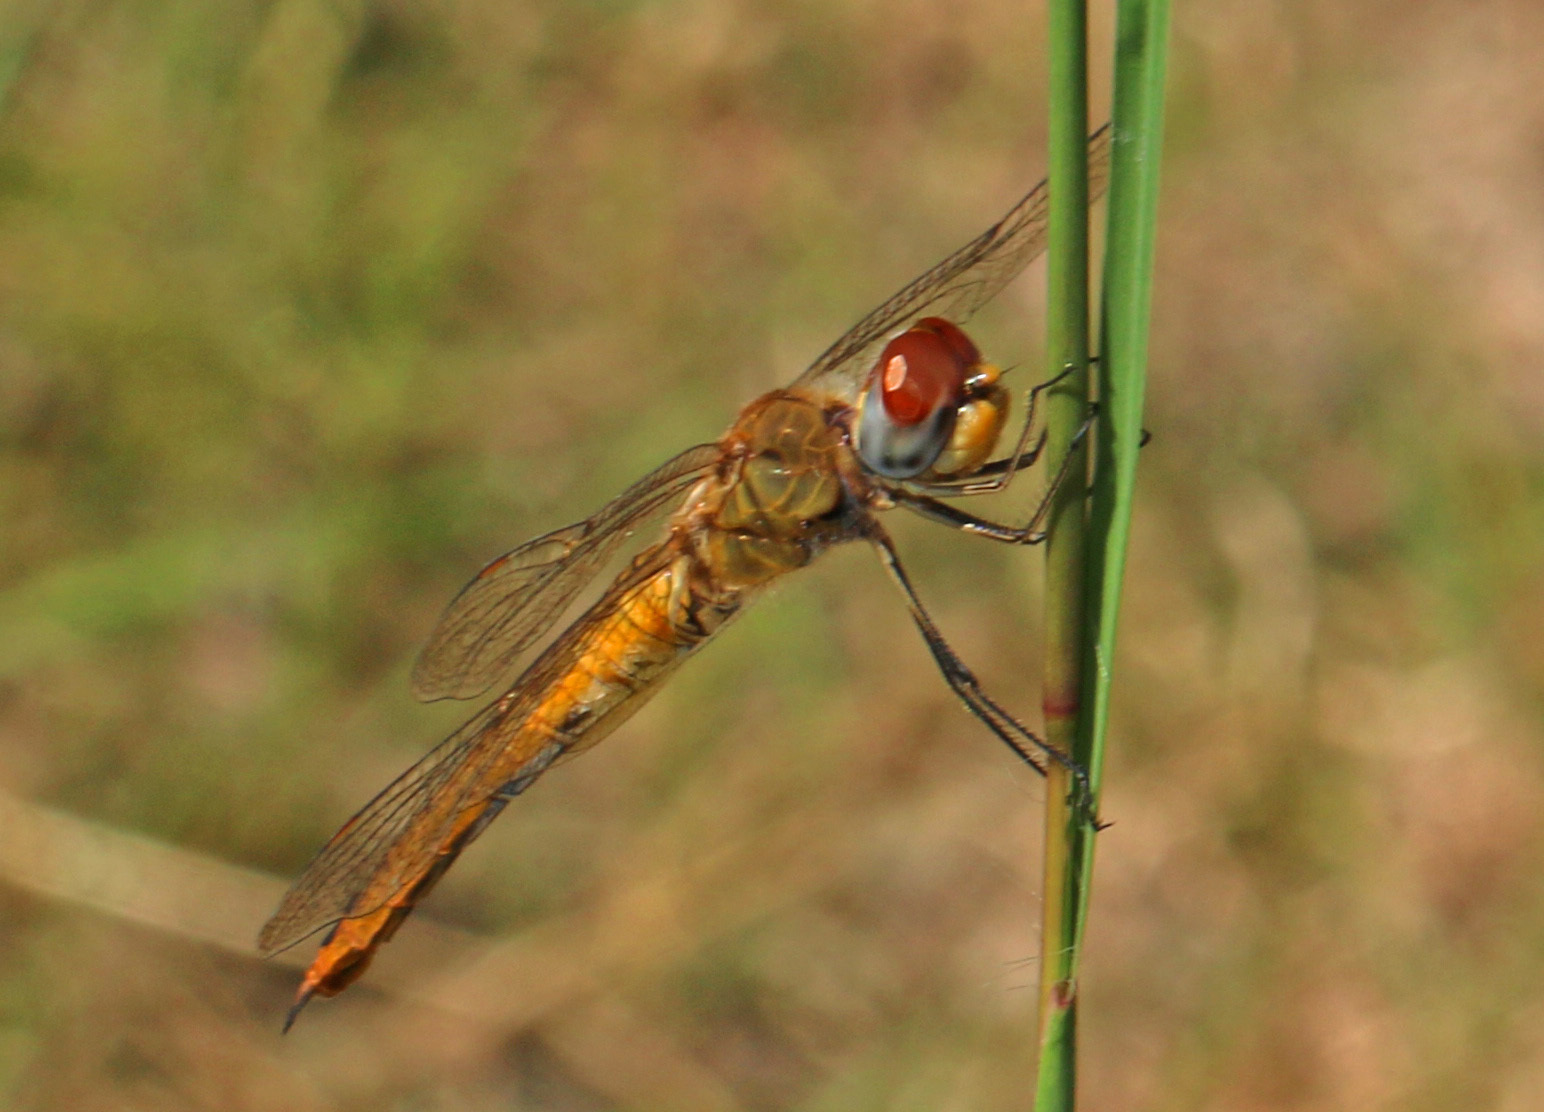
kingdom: Animalia
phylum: Arthropoda
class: Insecta
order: Odonata
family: Libellulidae
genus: Pantala
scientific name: Pantala flavescens
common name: Wandering glider
